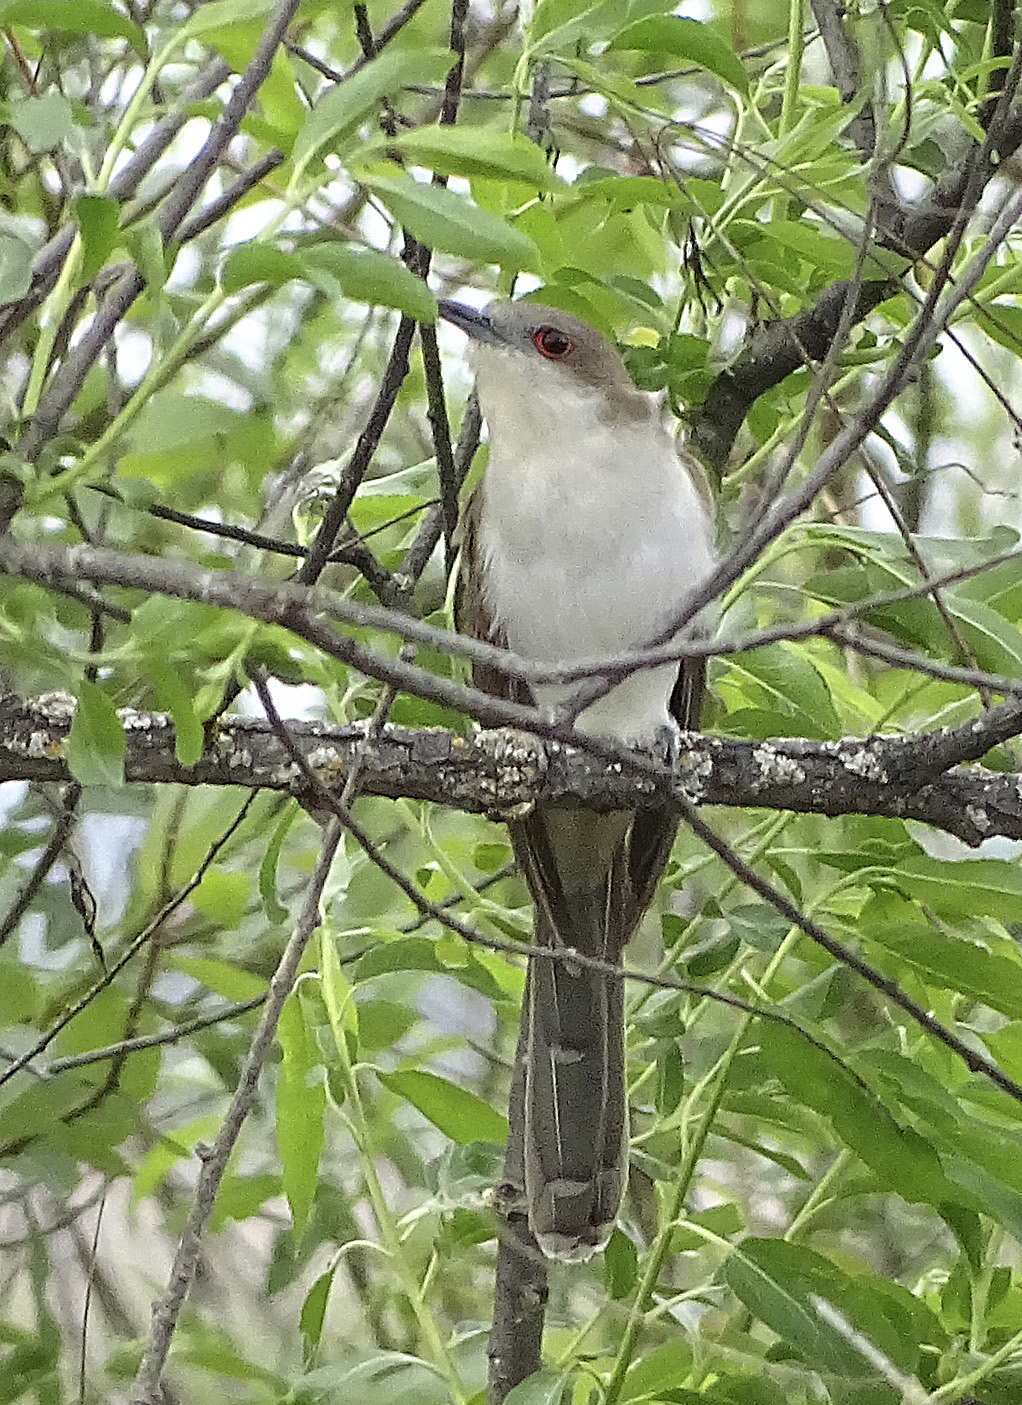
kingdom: Animalia
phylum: Chordata
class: Aves
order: Cuculiformes
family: Cuculidae
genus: Coccyzus
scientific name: Coccyzus erythropthalmus
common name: Black-billed cuckoo
